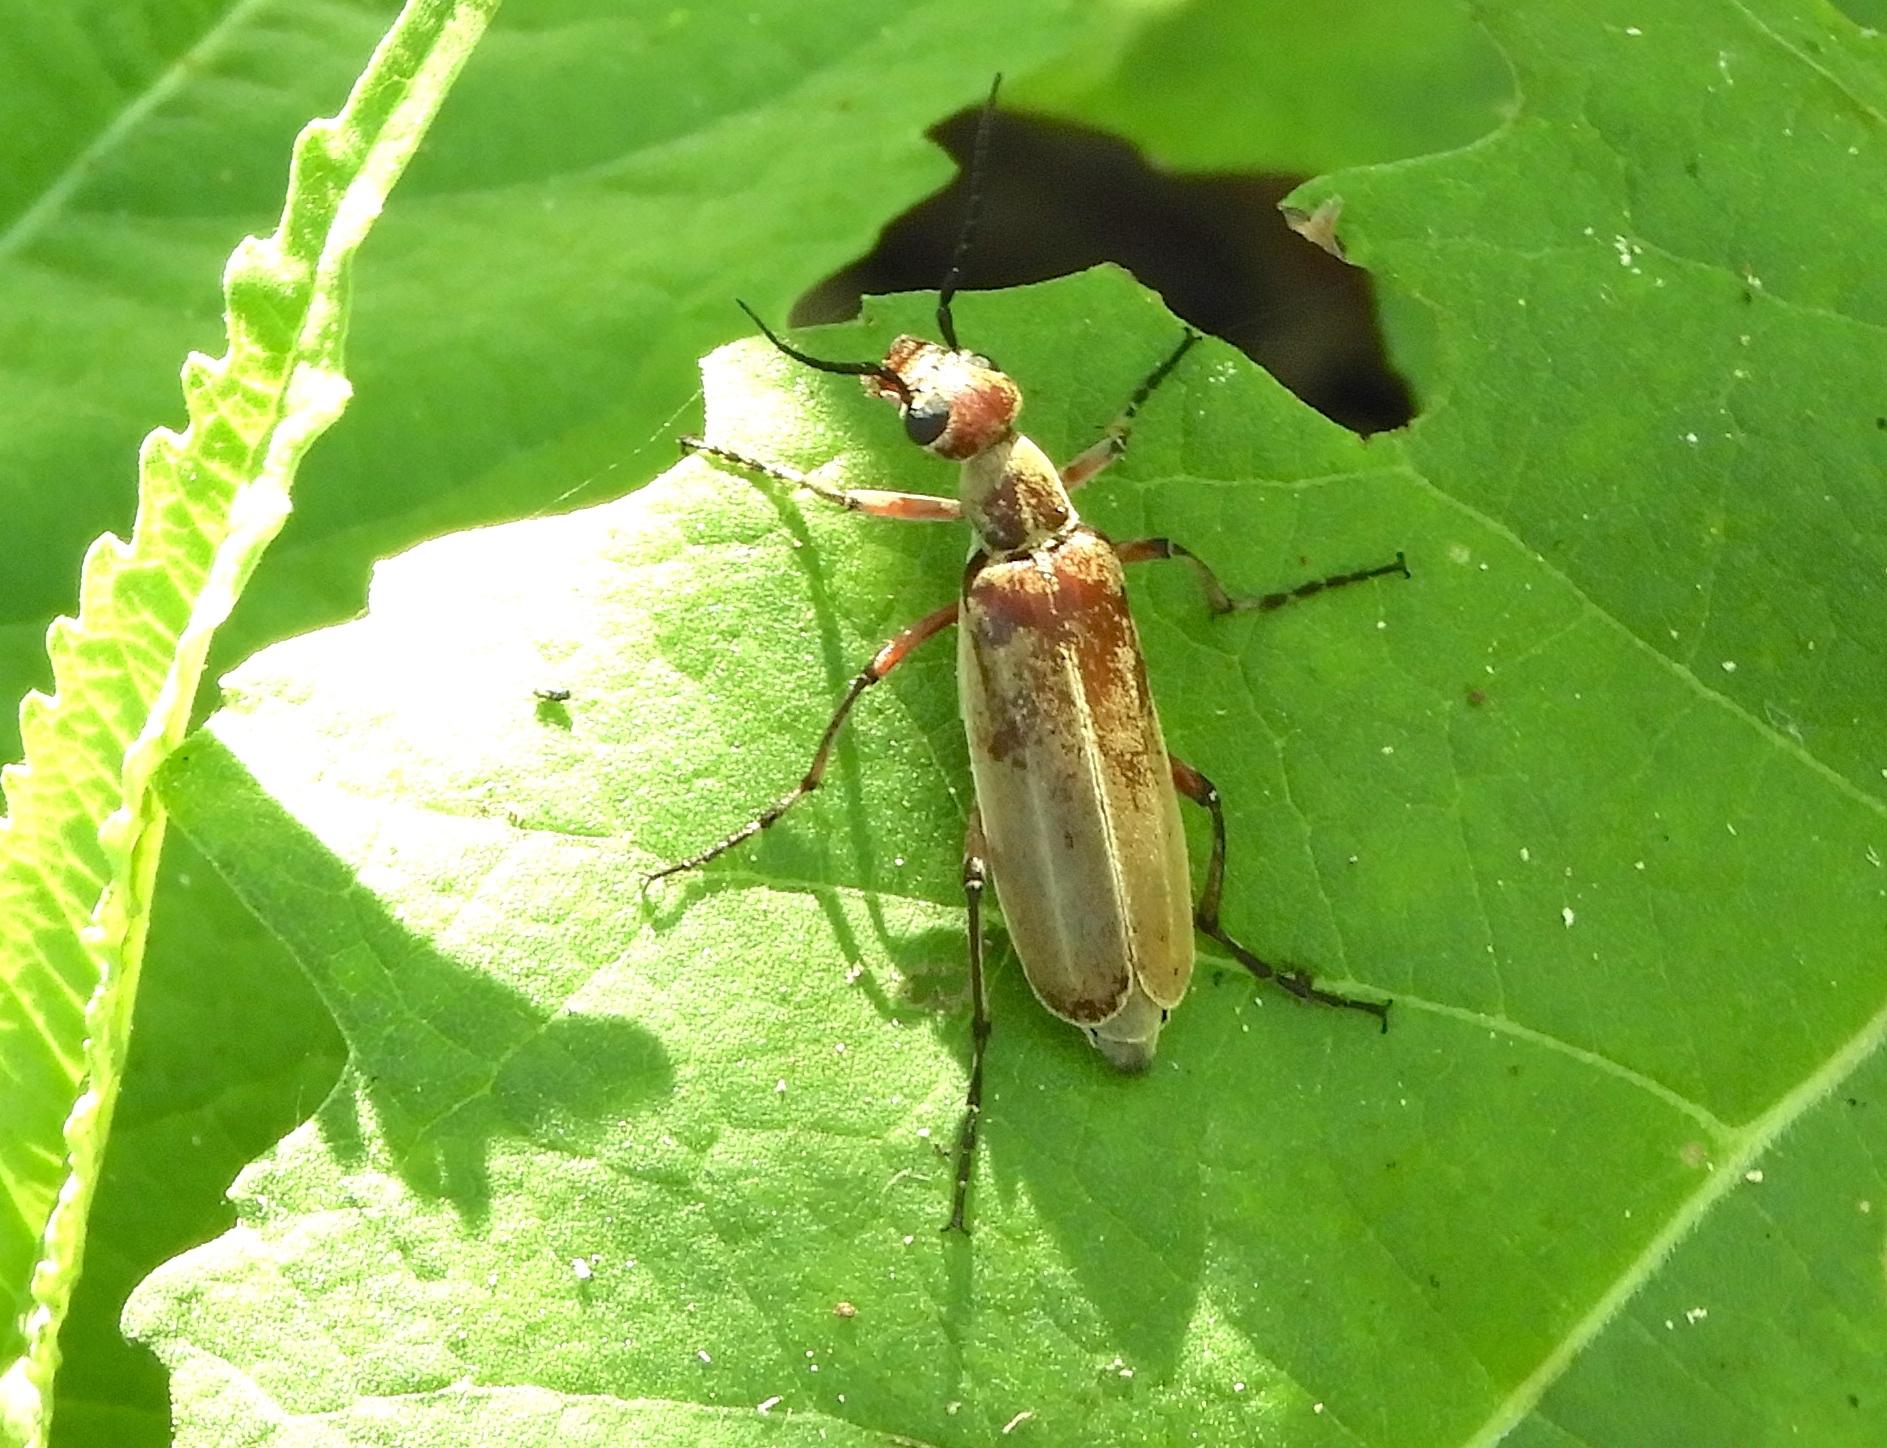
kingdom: Animalia
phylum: Arthropoda
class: Insecta
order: Coleoptera
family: Meloidae
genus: Epicauta
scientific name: Epicauta cupraeola
